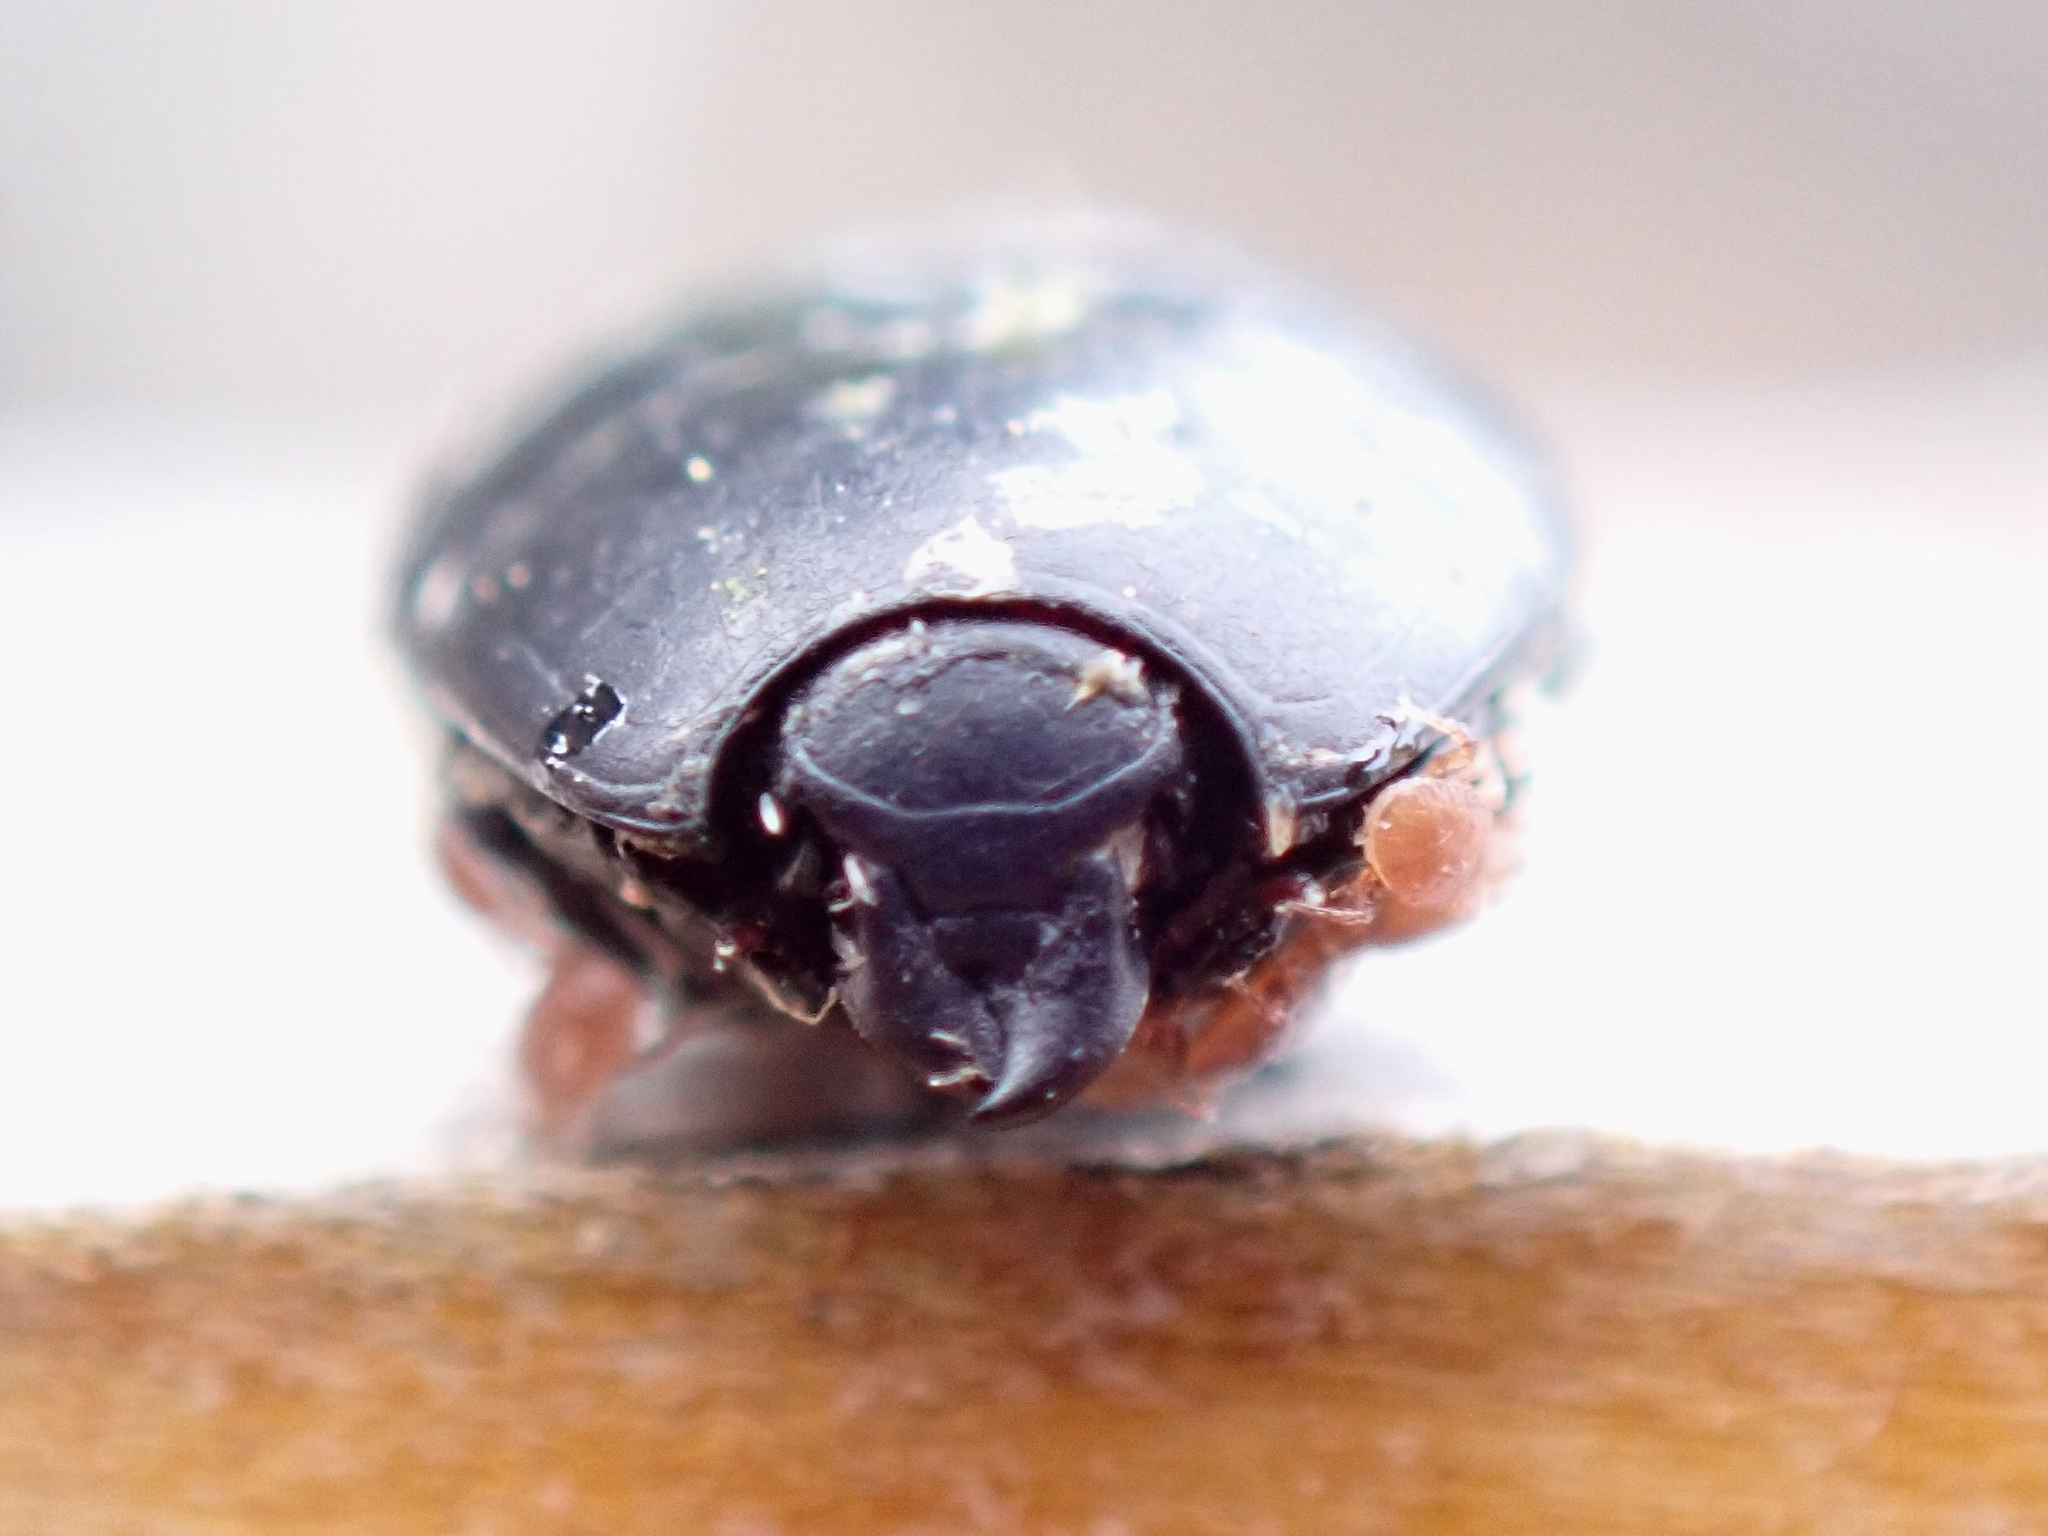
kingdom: Animalia
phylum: Arthropoda
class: Insecta
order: Coleoptera
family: Histeridae
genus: Hister
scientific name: Hister canariensis
